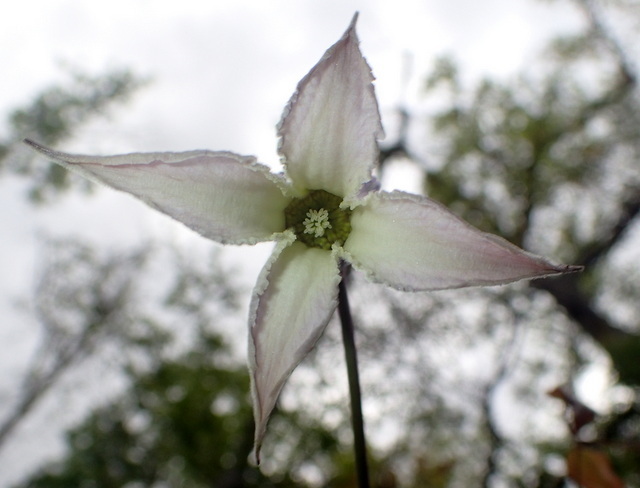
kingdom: Plantae
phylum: Tracheophyta
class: Magnoliopsida
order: Ranunculales
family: Ranunculaceae
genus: Clematis
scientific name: Clematis crispa
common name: Curly clematis
